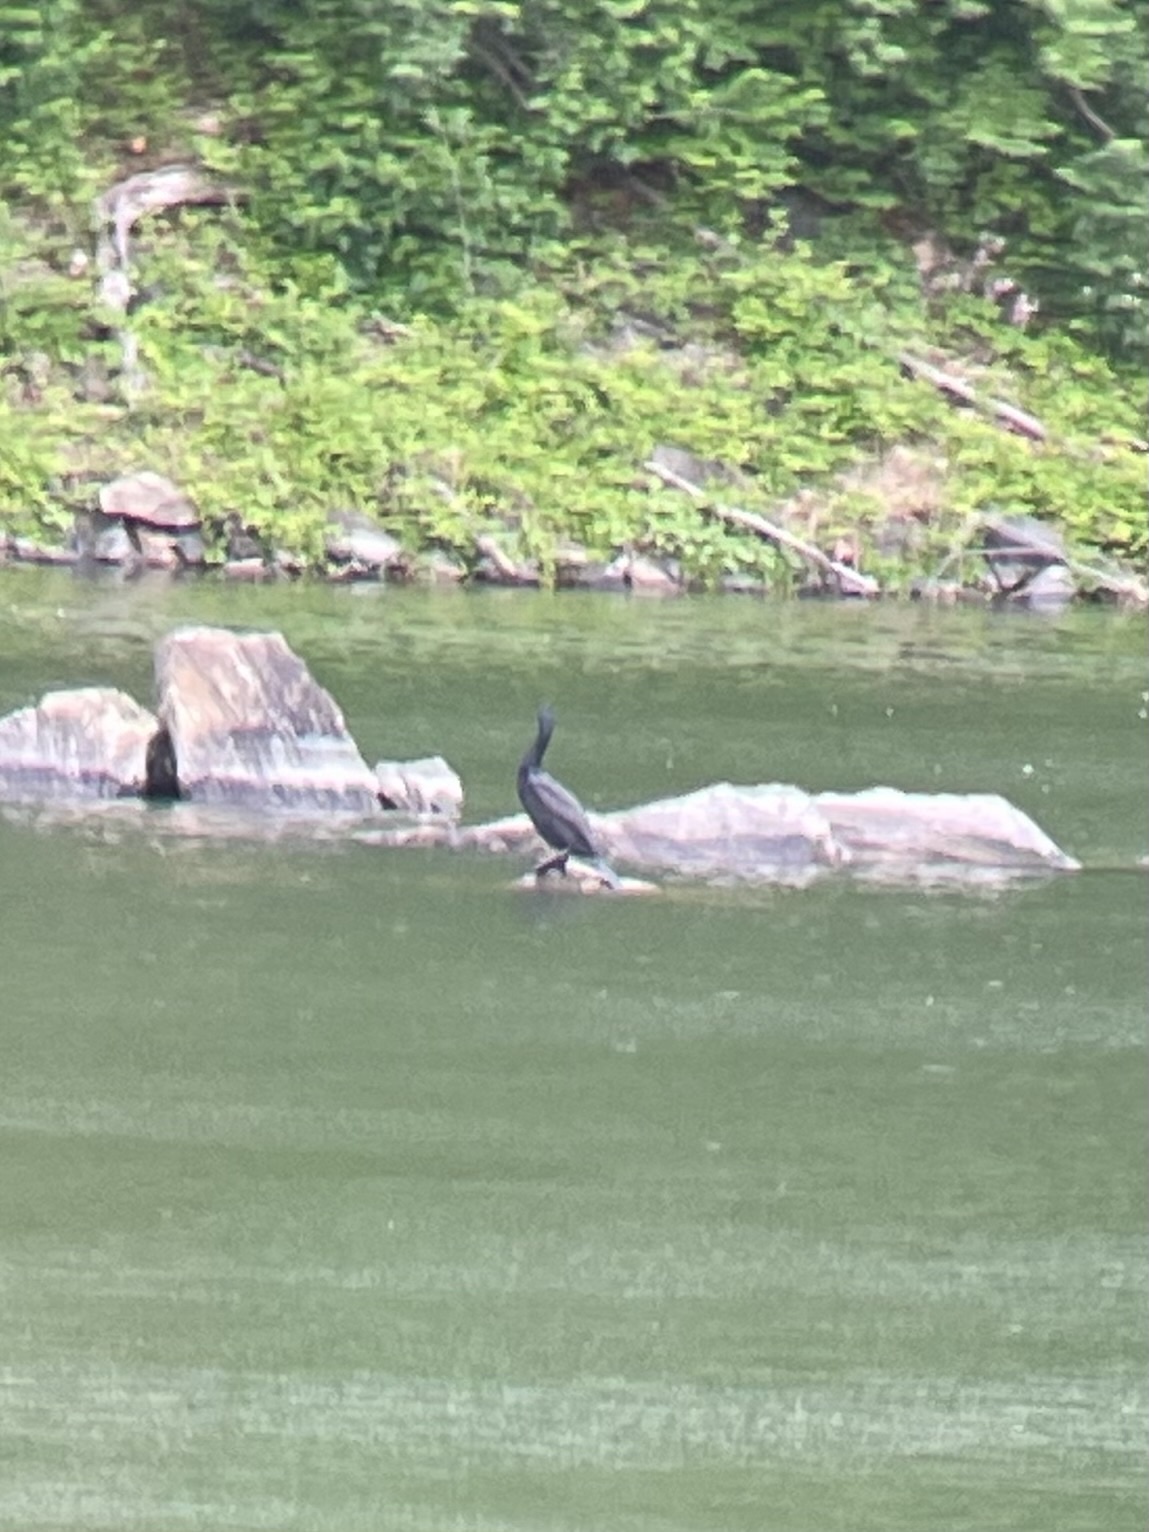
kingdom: Animalia
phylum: Chordata
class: Aves
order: Suliformes
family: Phalacrocoracidae
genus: Phalacrocorax
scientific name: Phalacrocorax auritus
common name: Double-crested cormorant
